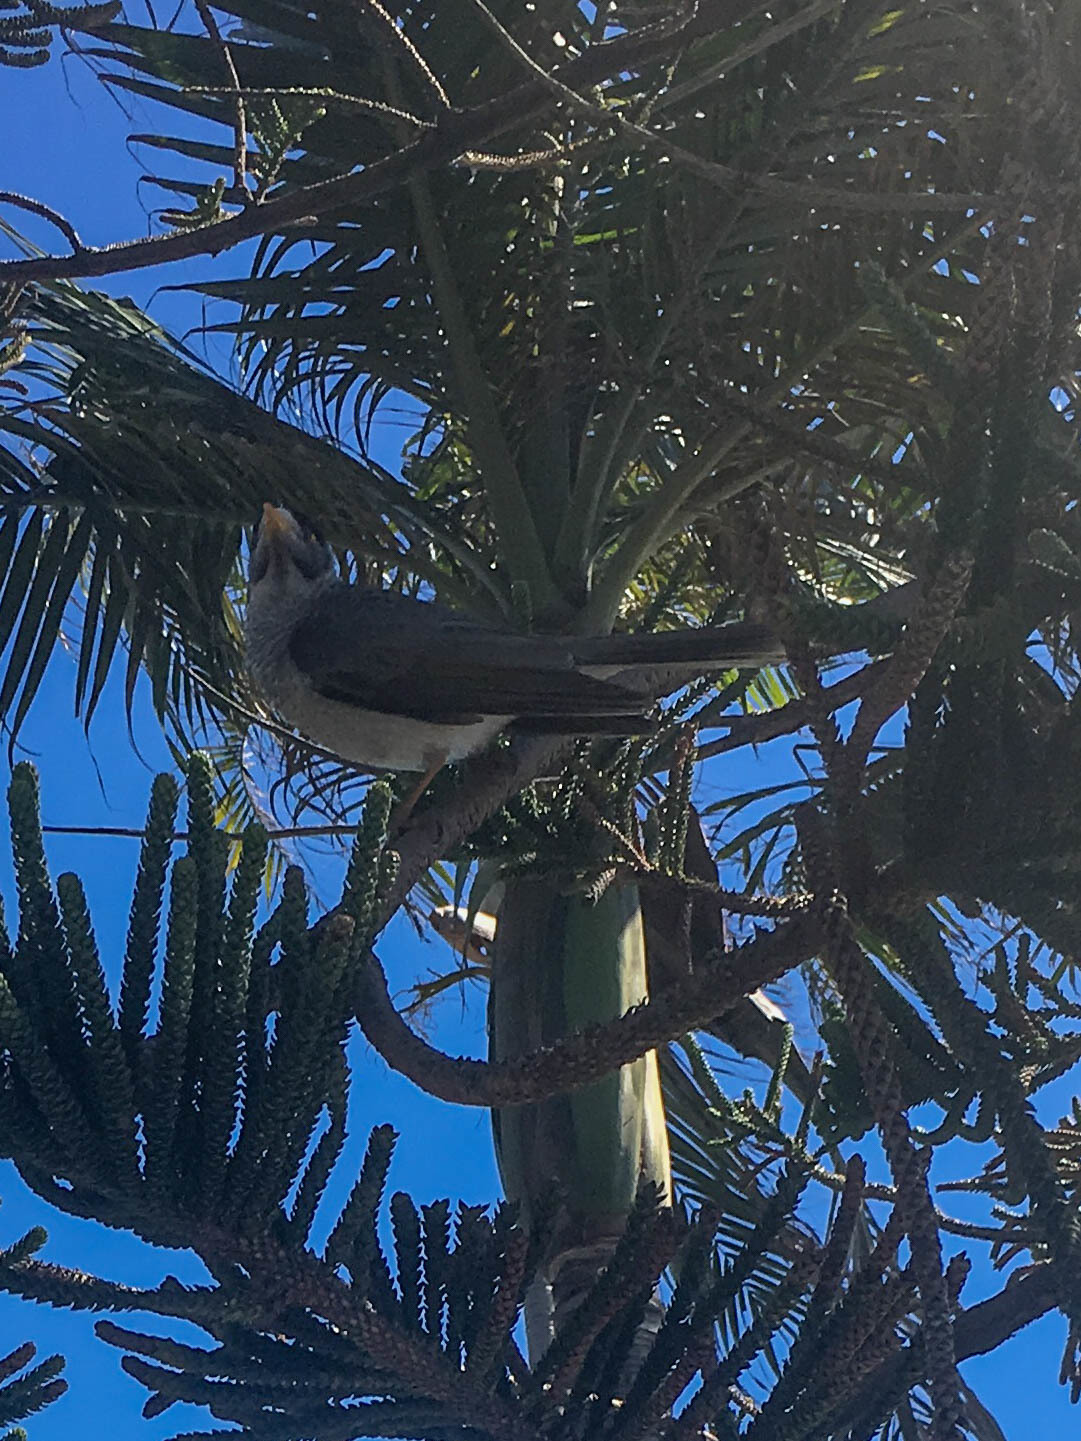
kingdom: Animalia
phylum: Chordata
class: Aves
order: Passeriformes
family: Meliphagidae
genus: Manorina
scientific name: Manorina melanocephala
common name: Noisy miner
